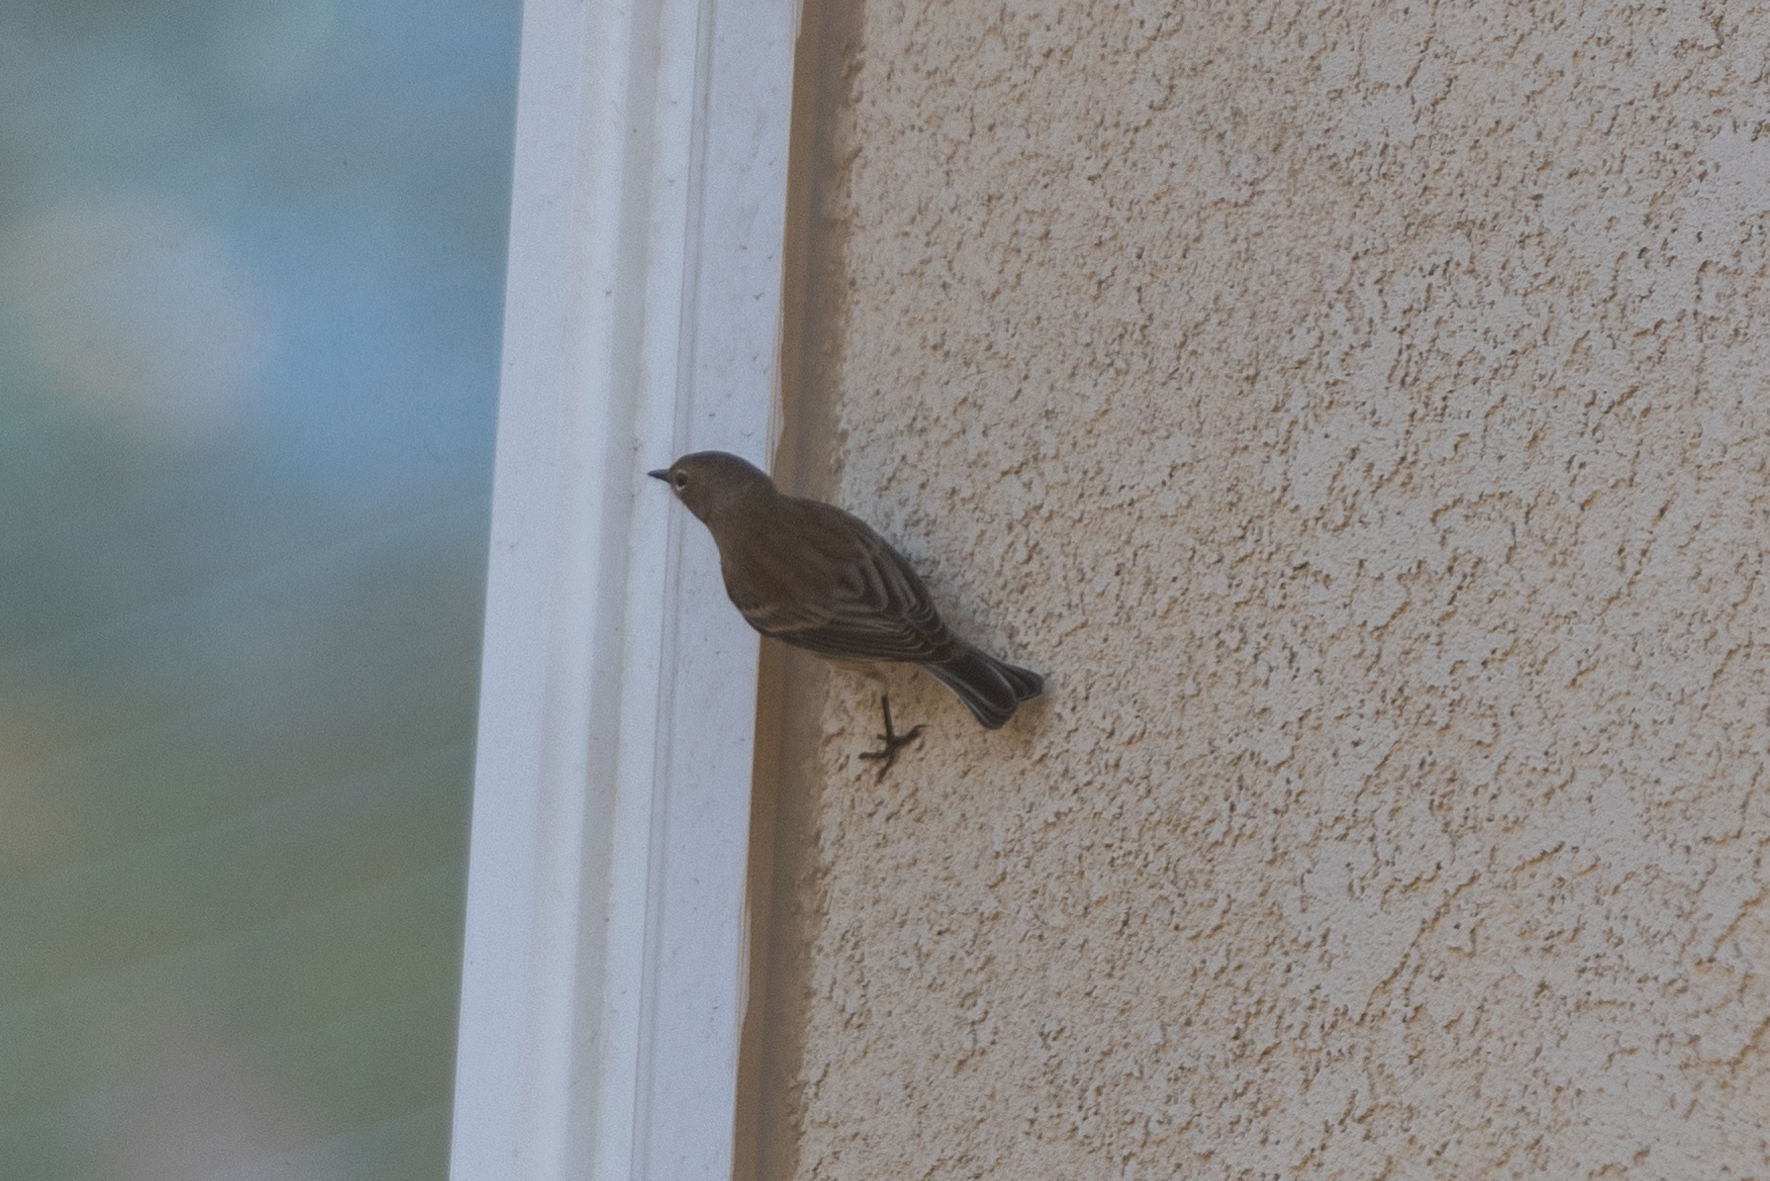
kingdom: Animalia
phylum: Chordata
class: Aves
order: Passeriformes
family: Parulidae
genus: Setophaga
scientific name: Setophaga coronata
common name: Myrtle warbler
